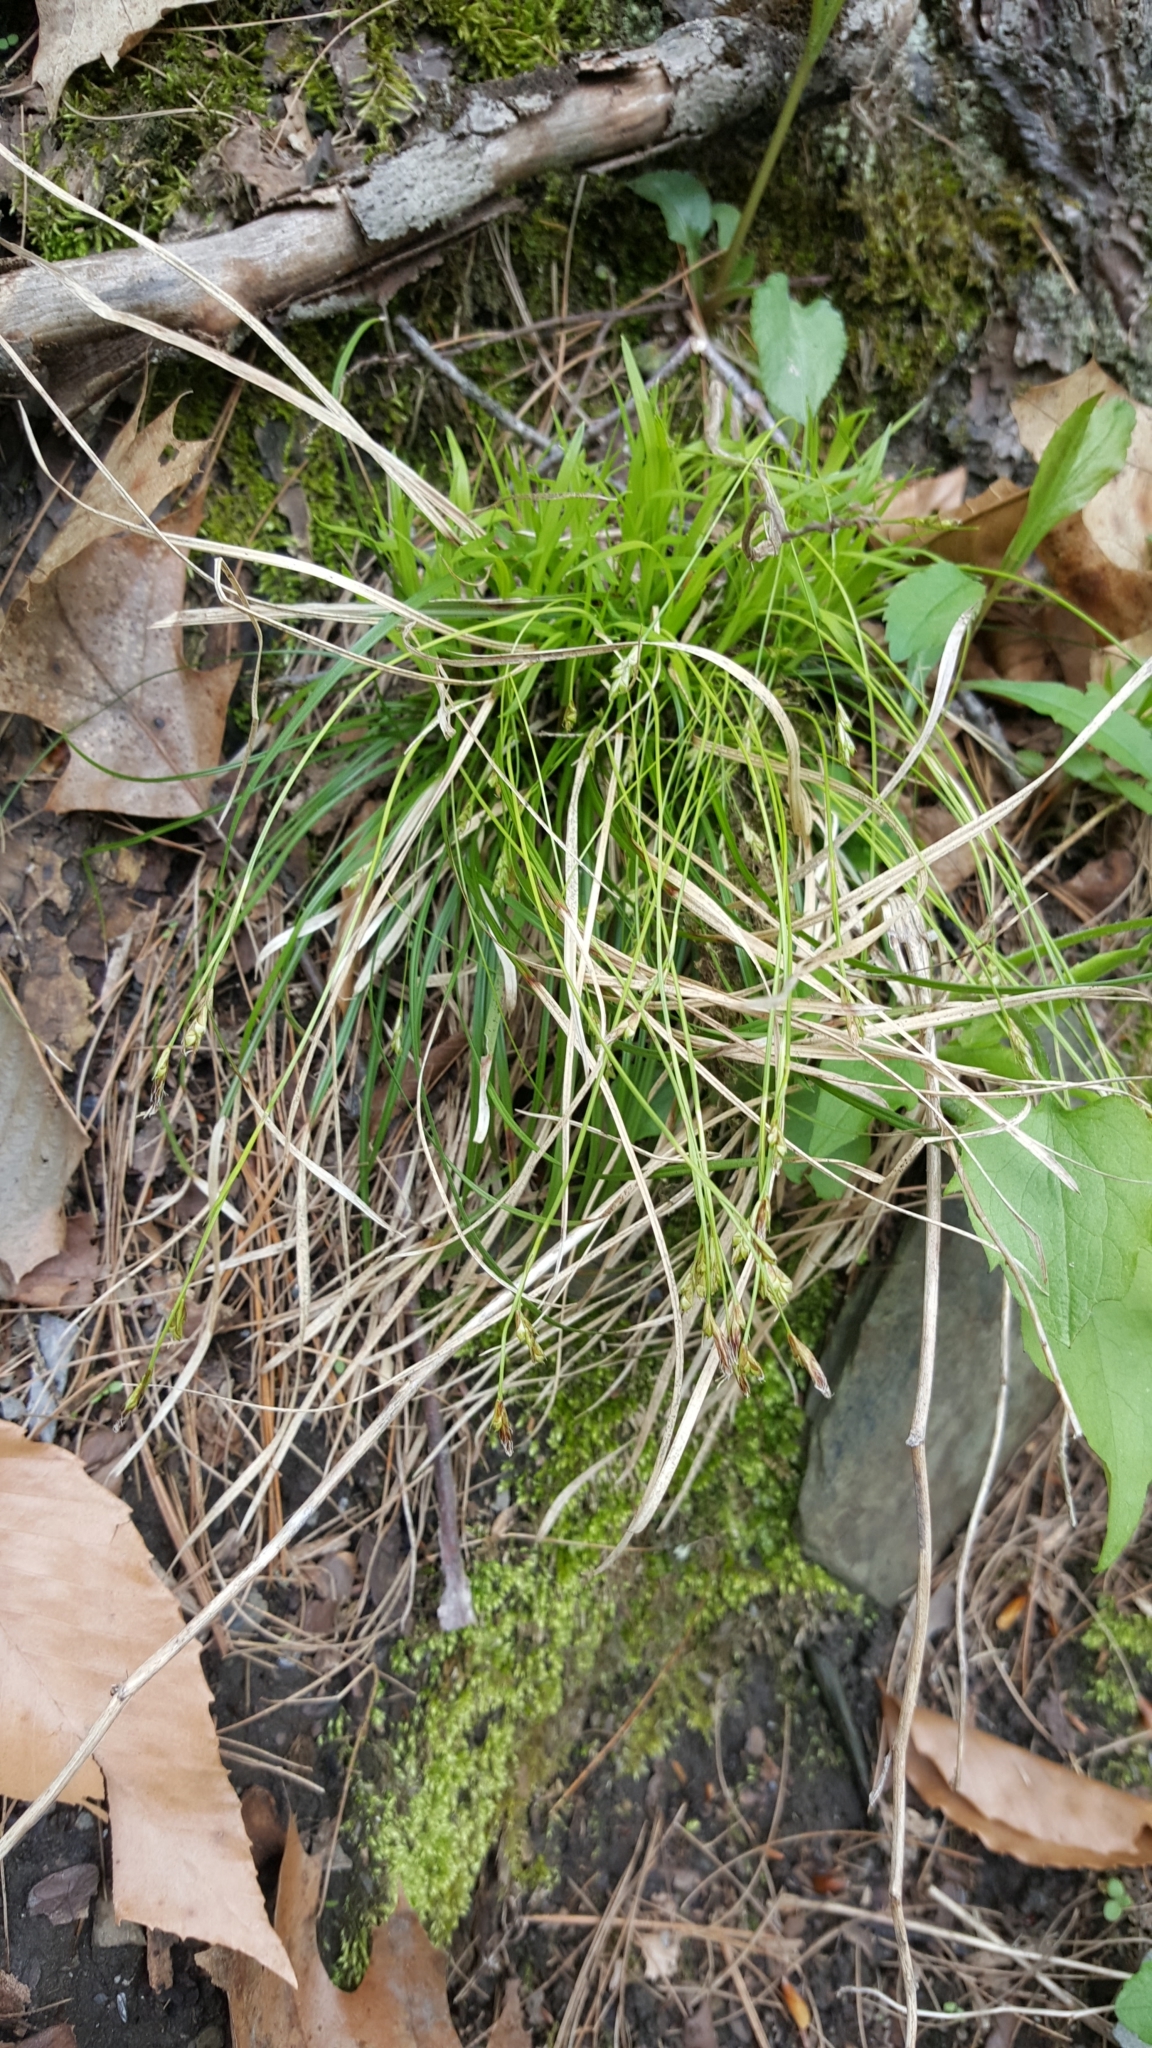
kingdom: Plantae
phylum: Tracheophyta
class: Liliopsida
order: Poales
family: Cyperaceae
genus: Carex
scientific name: Carex pedunculata
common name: Pedunculate sedge
